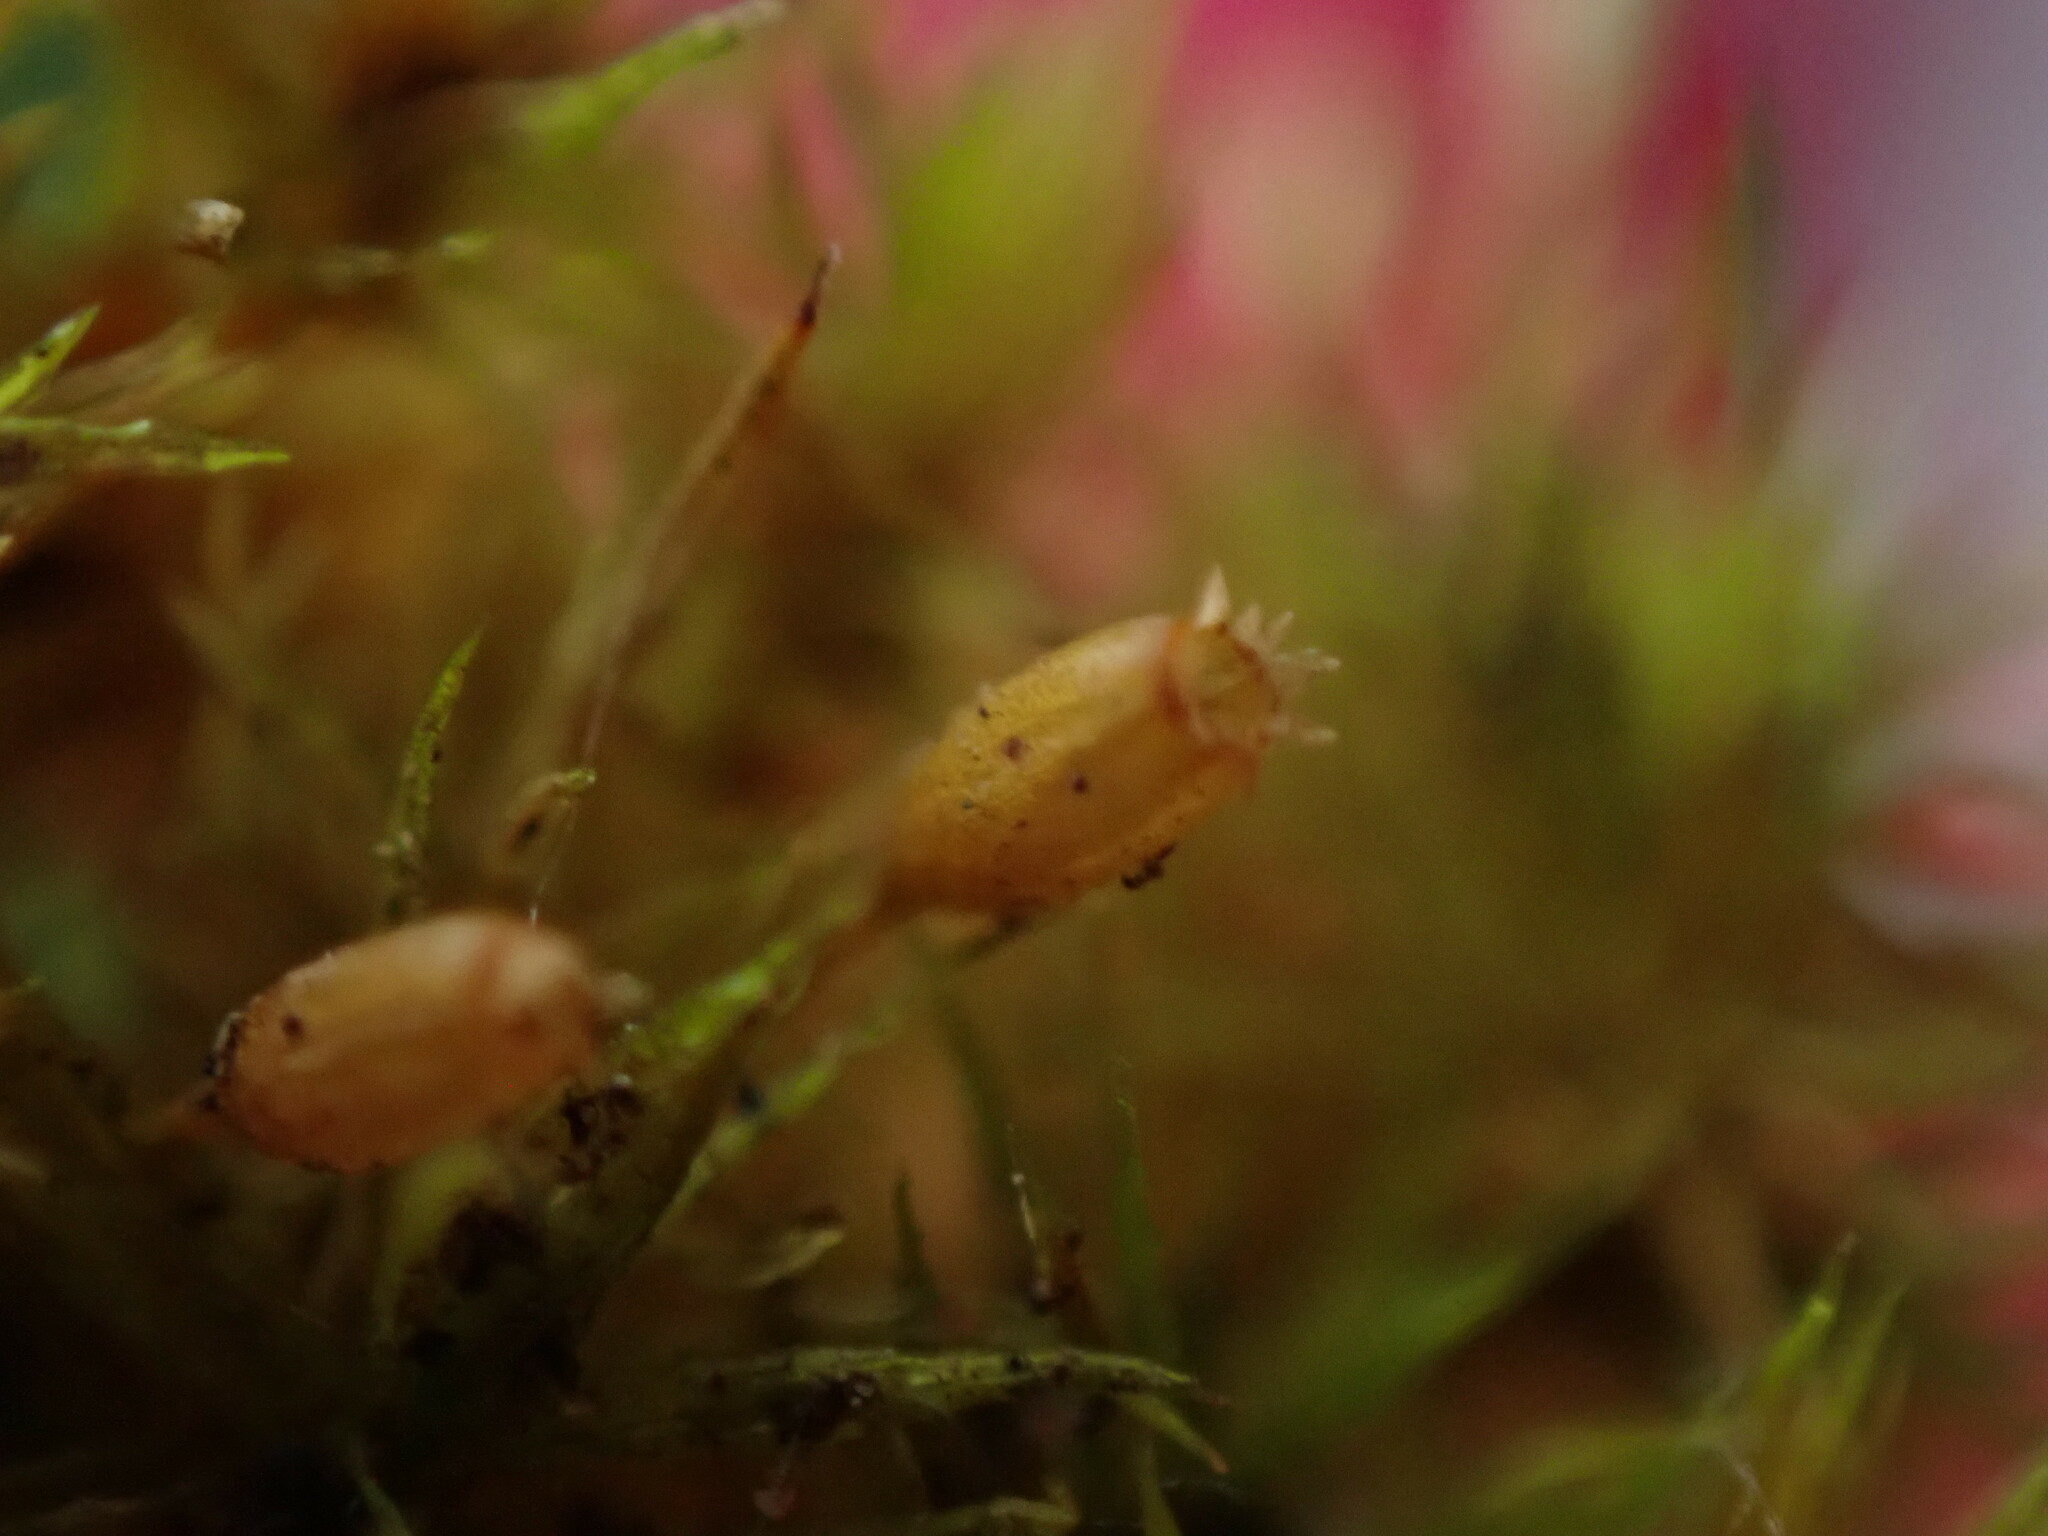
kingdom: Plantae
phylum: Bryophyta
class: Bryopsida
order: Orthotrichales
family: Orthotrichaceae
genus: Orthotrichum
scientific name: Orthotrichum columbicum
